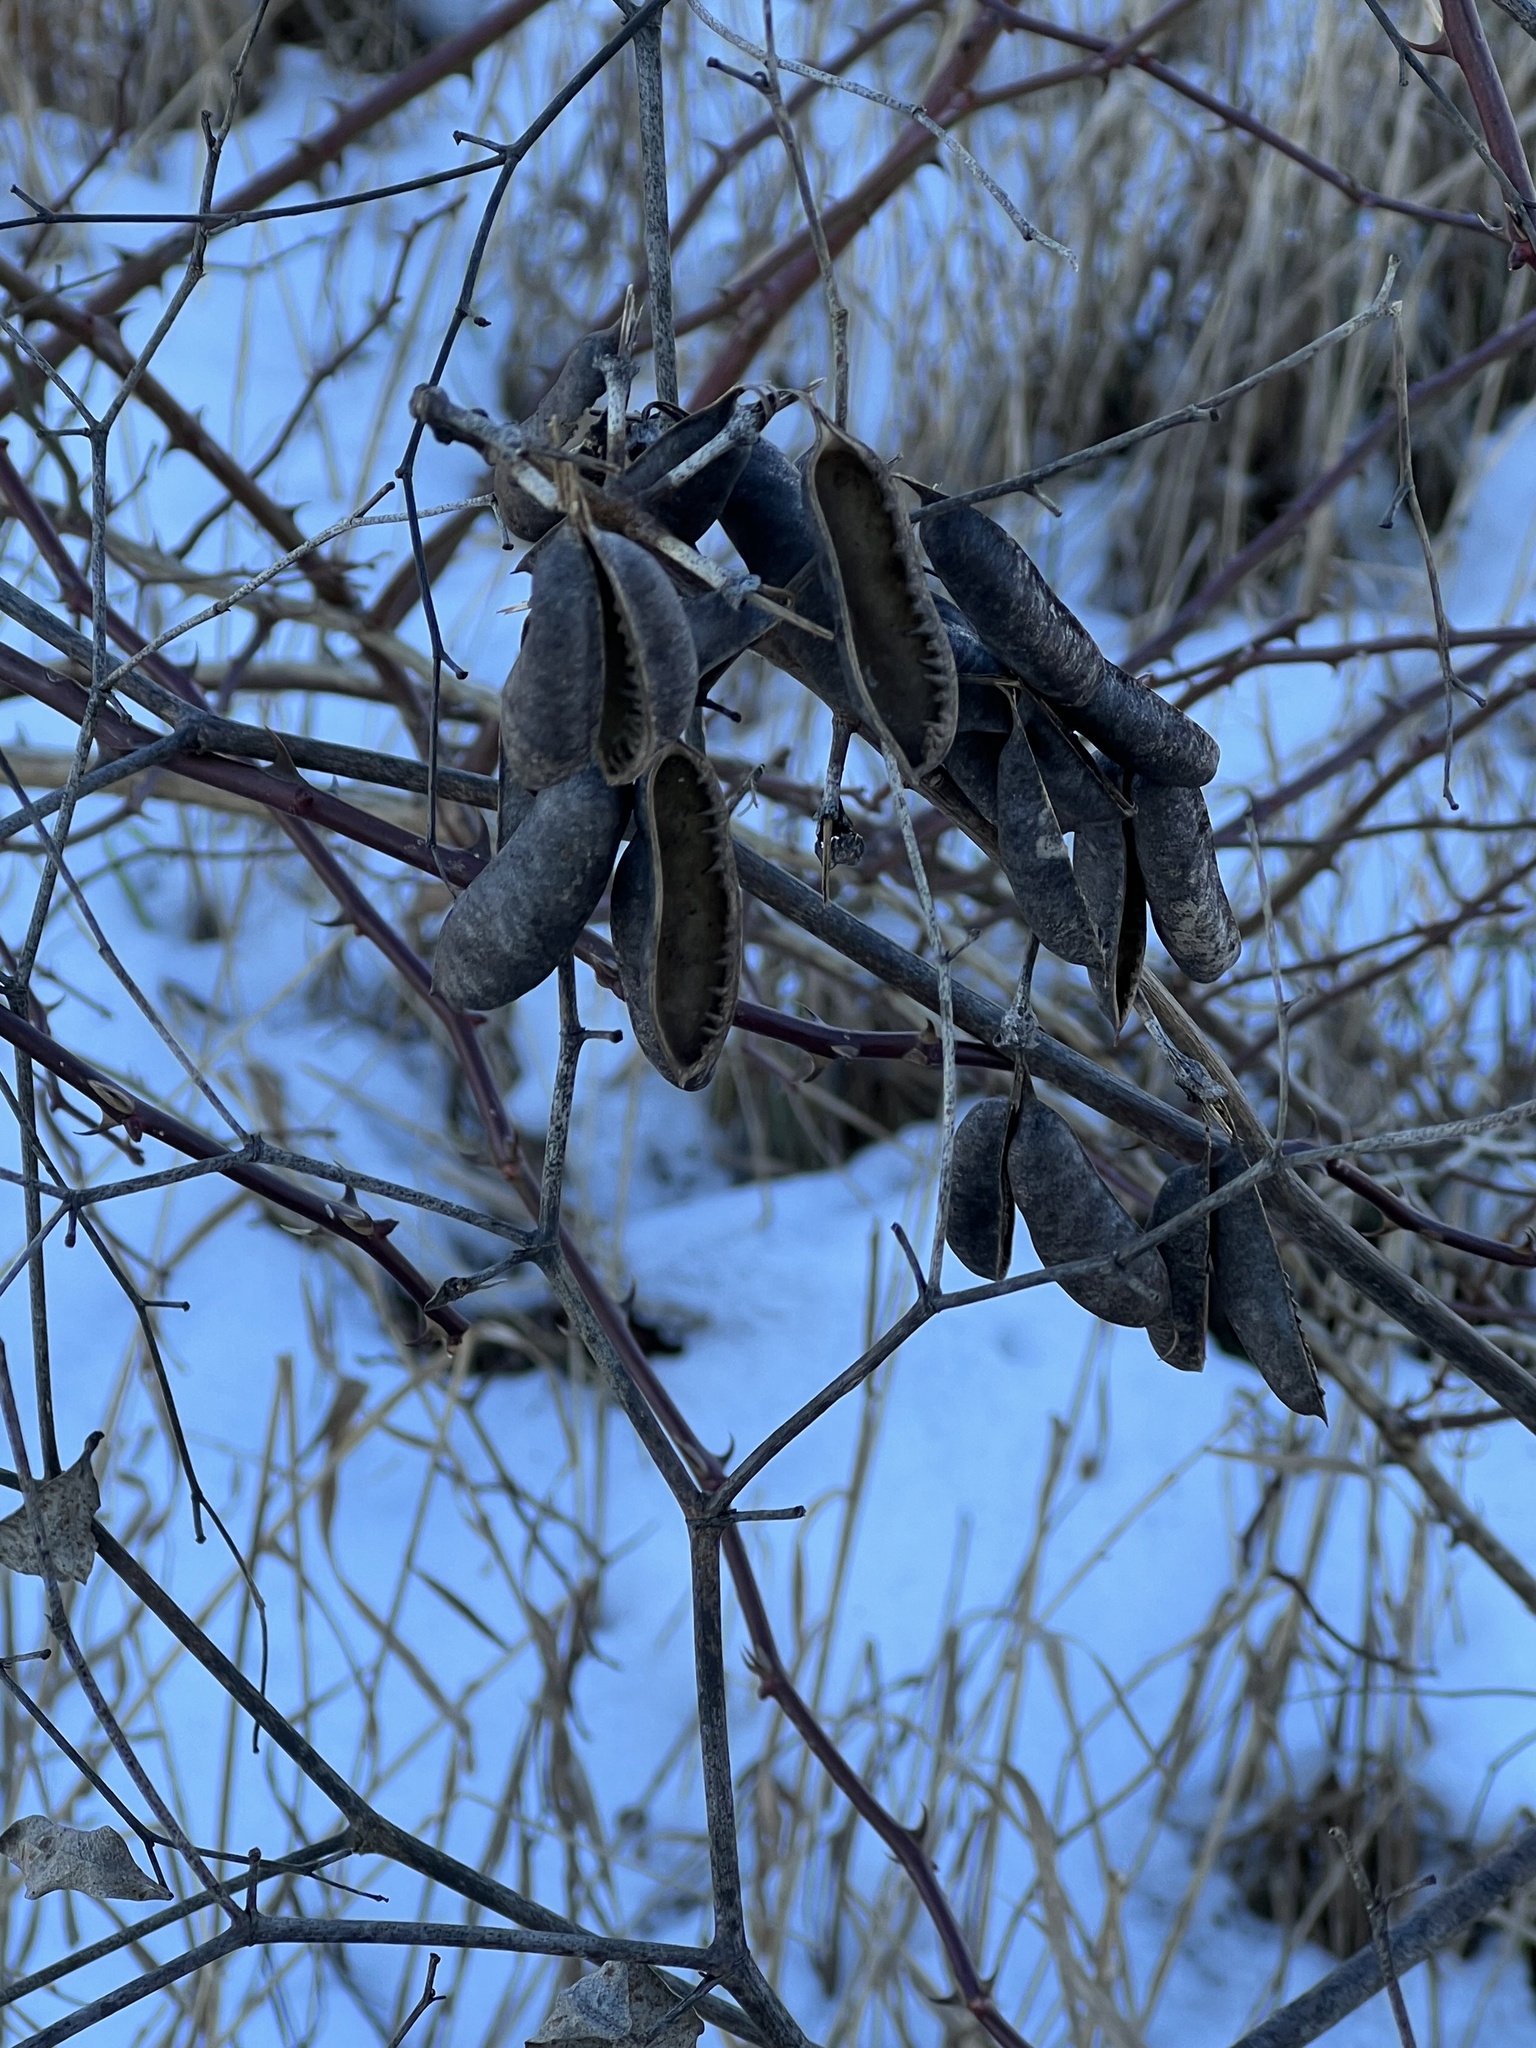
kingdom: Plantae
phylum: Tracheophyta
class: Magnoliopsida
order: Fabales
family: Fabaceae
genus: Baptisia
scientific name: Baptisia alba
